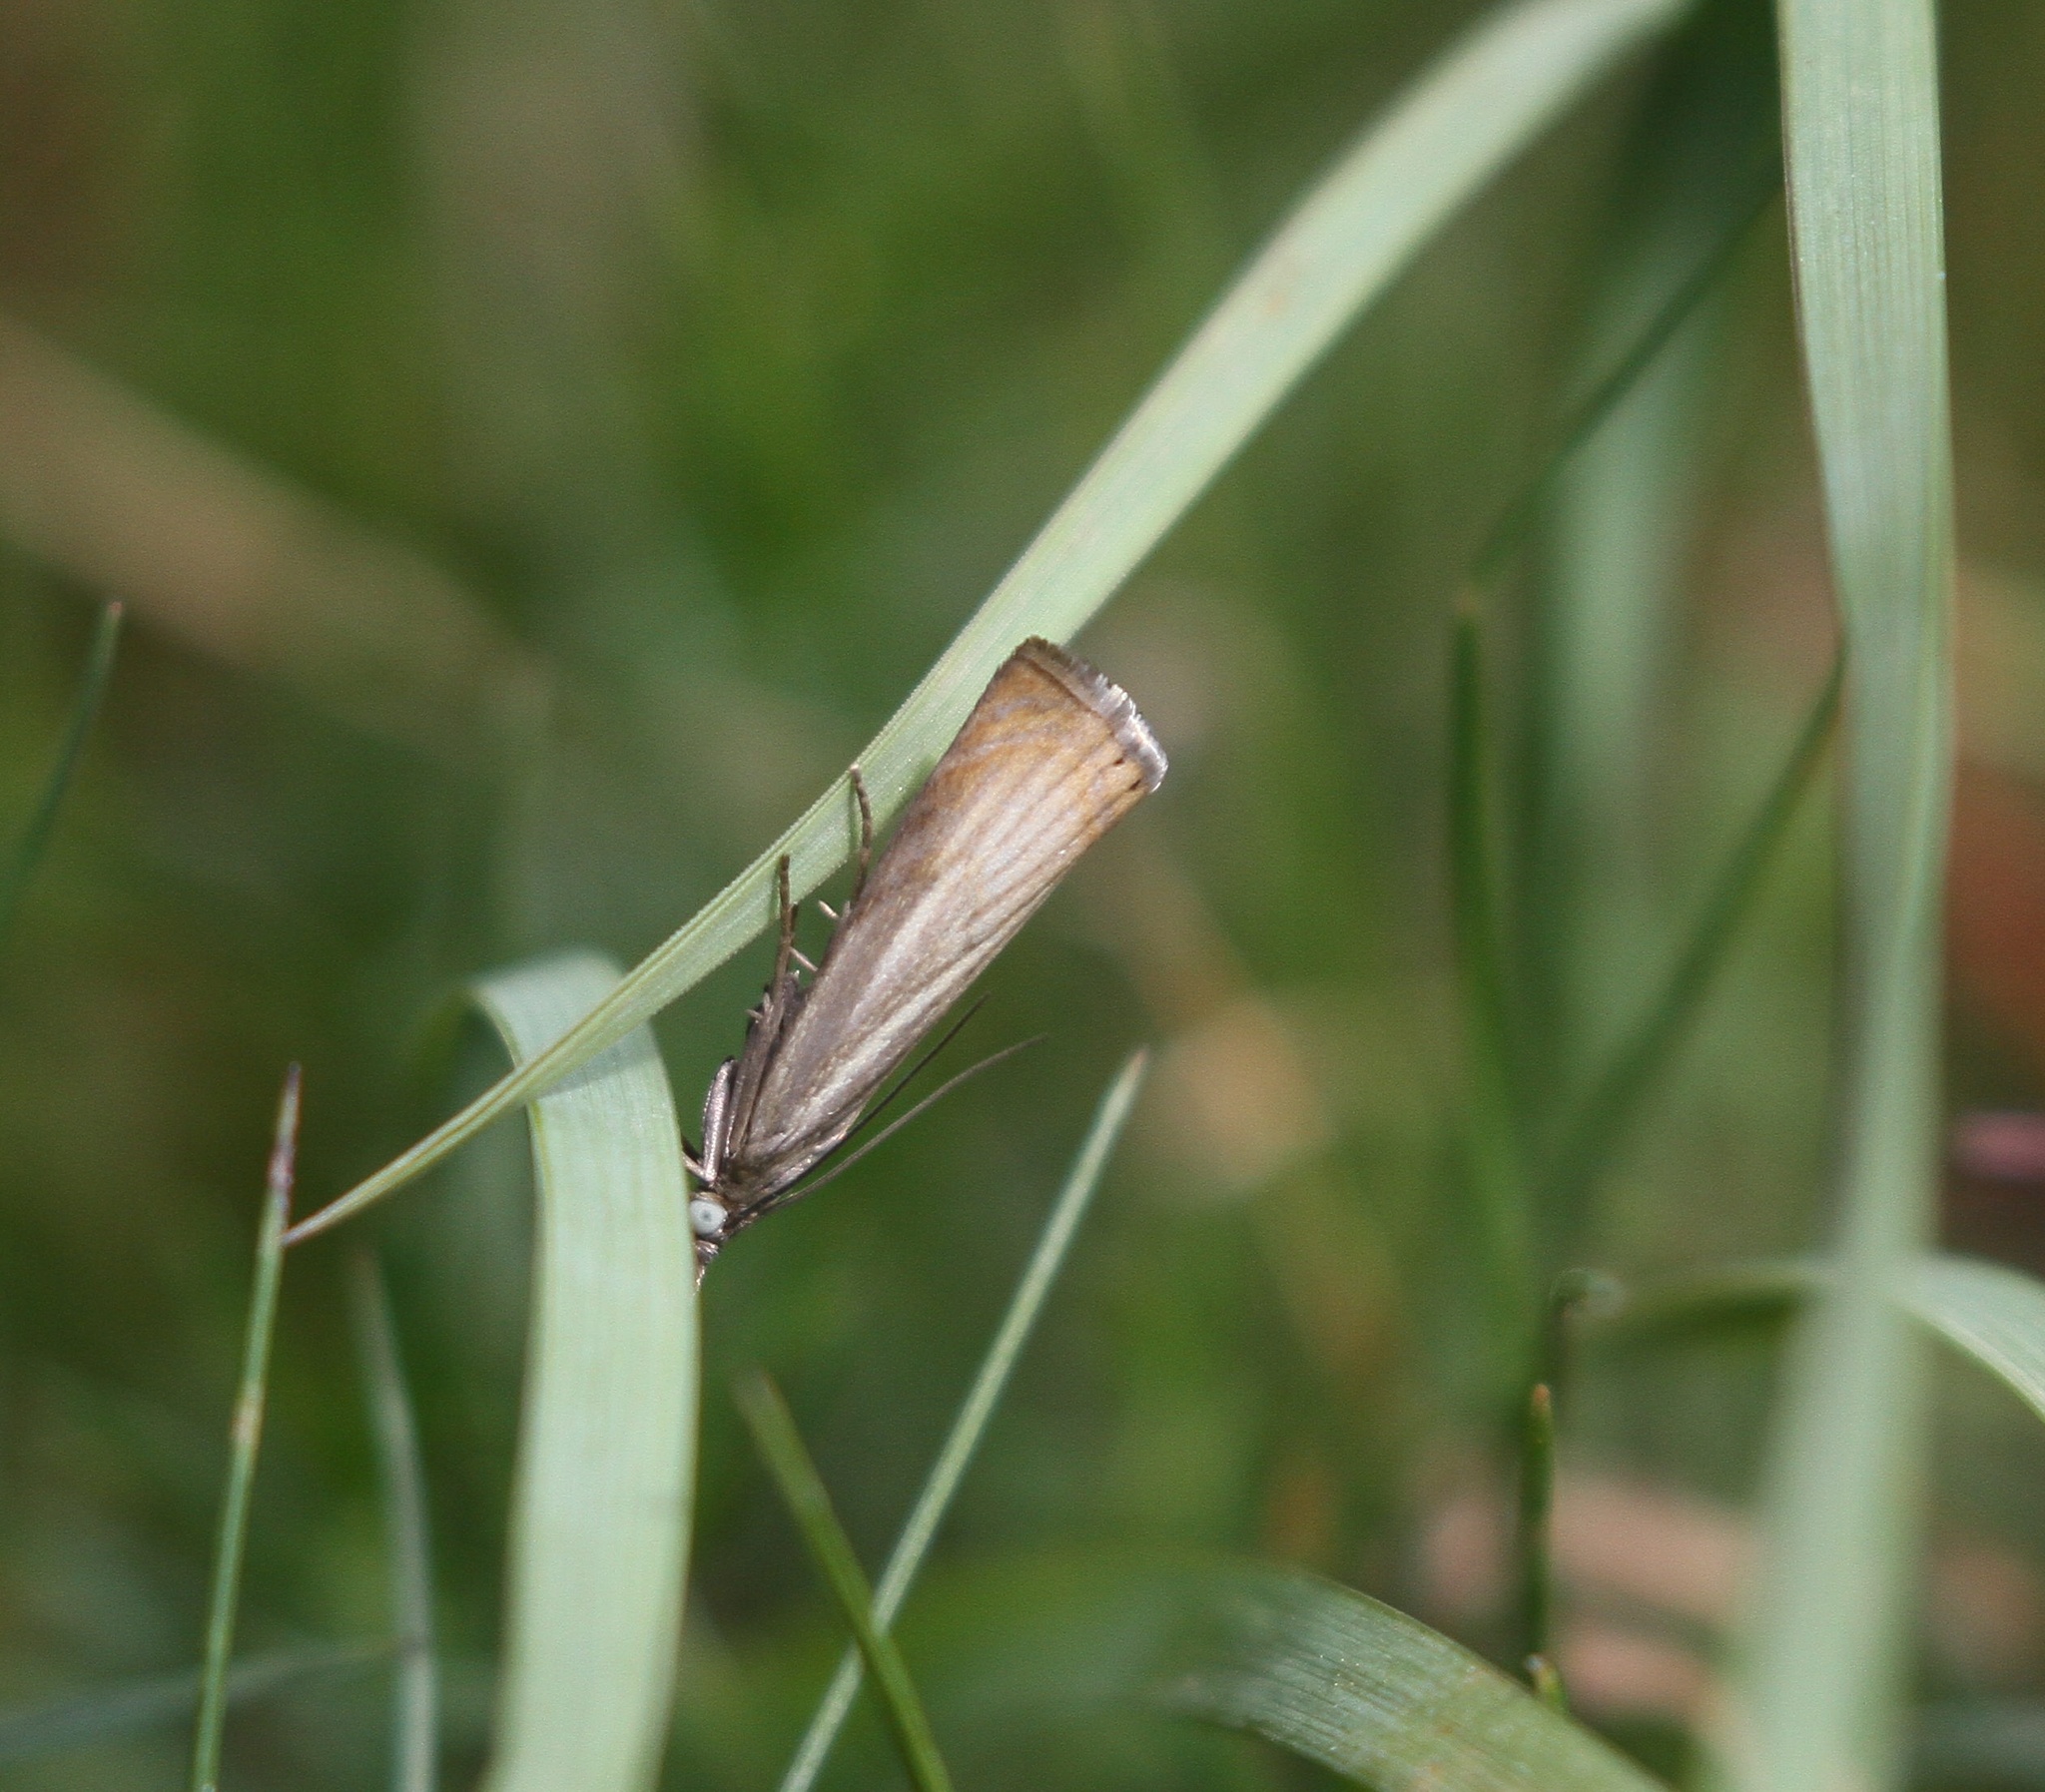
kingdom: Animalia
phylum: Arthropoda
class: Insecta
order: Lepidoptera
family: Crambidae
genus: Chrysoteuchia
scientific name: Chrysoteuchia culmella
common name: Garden grass-veneer
